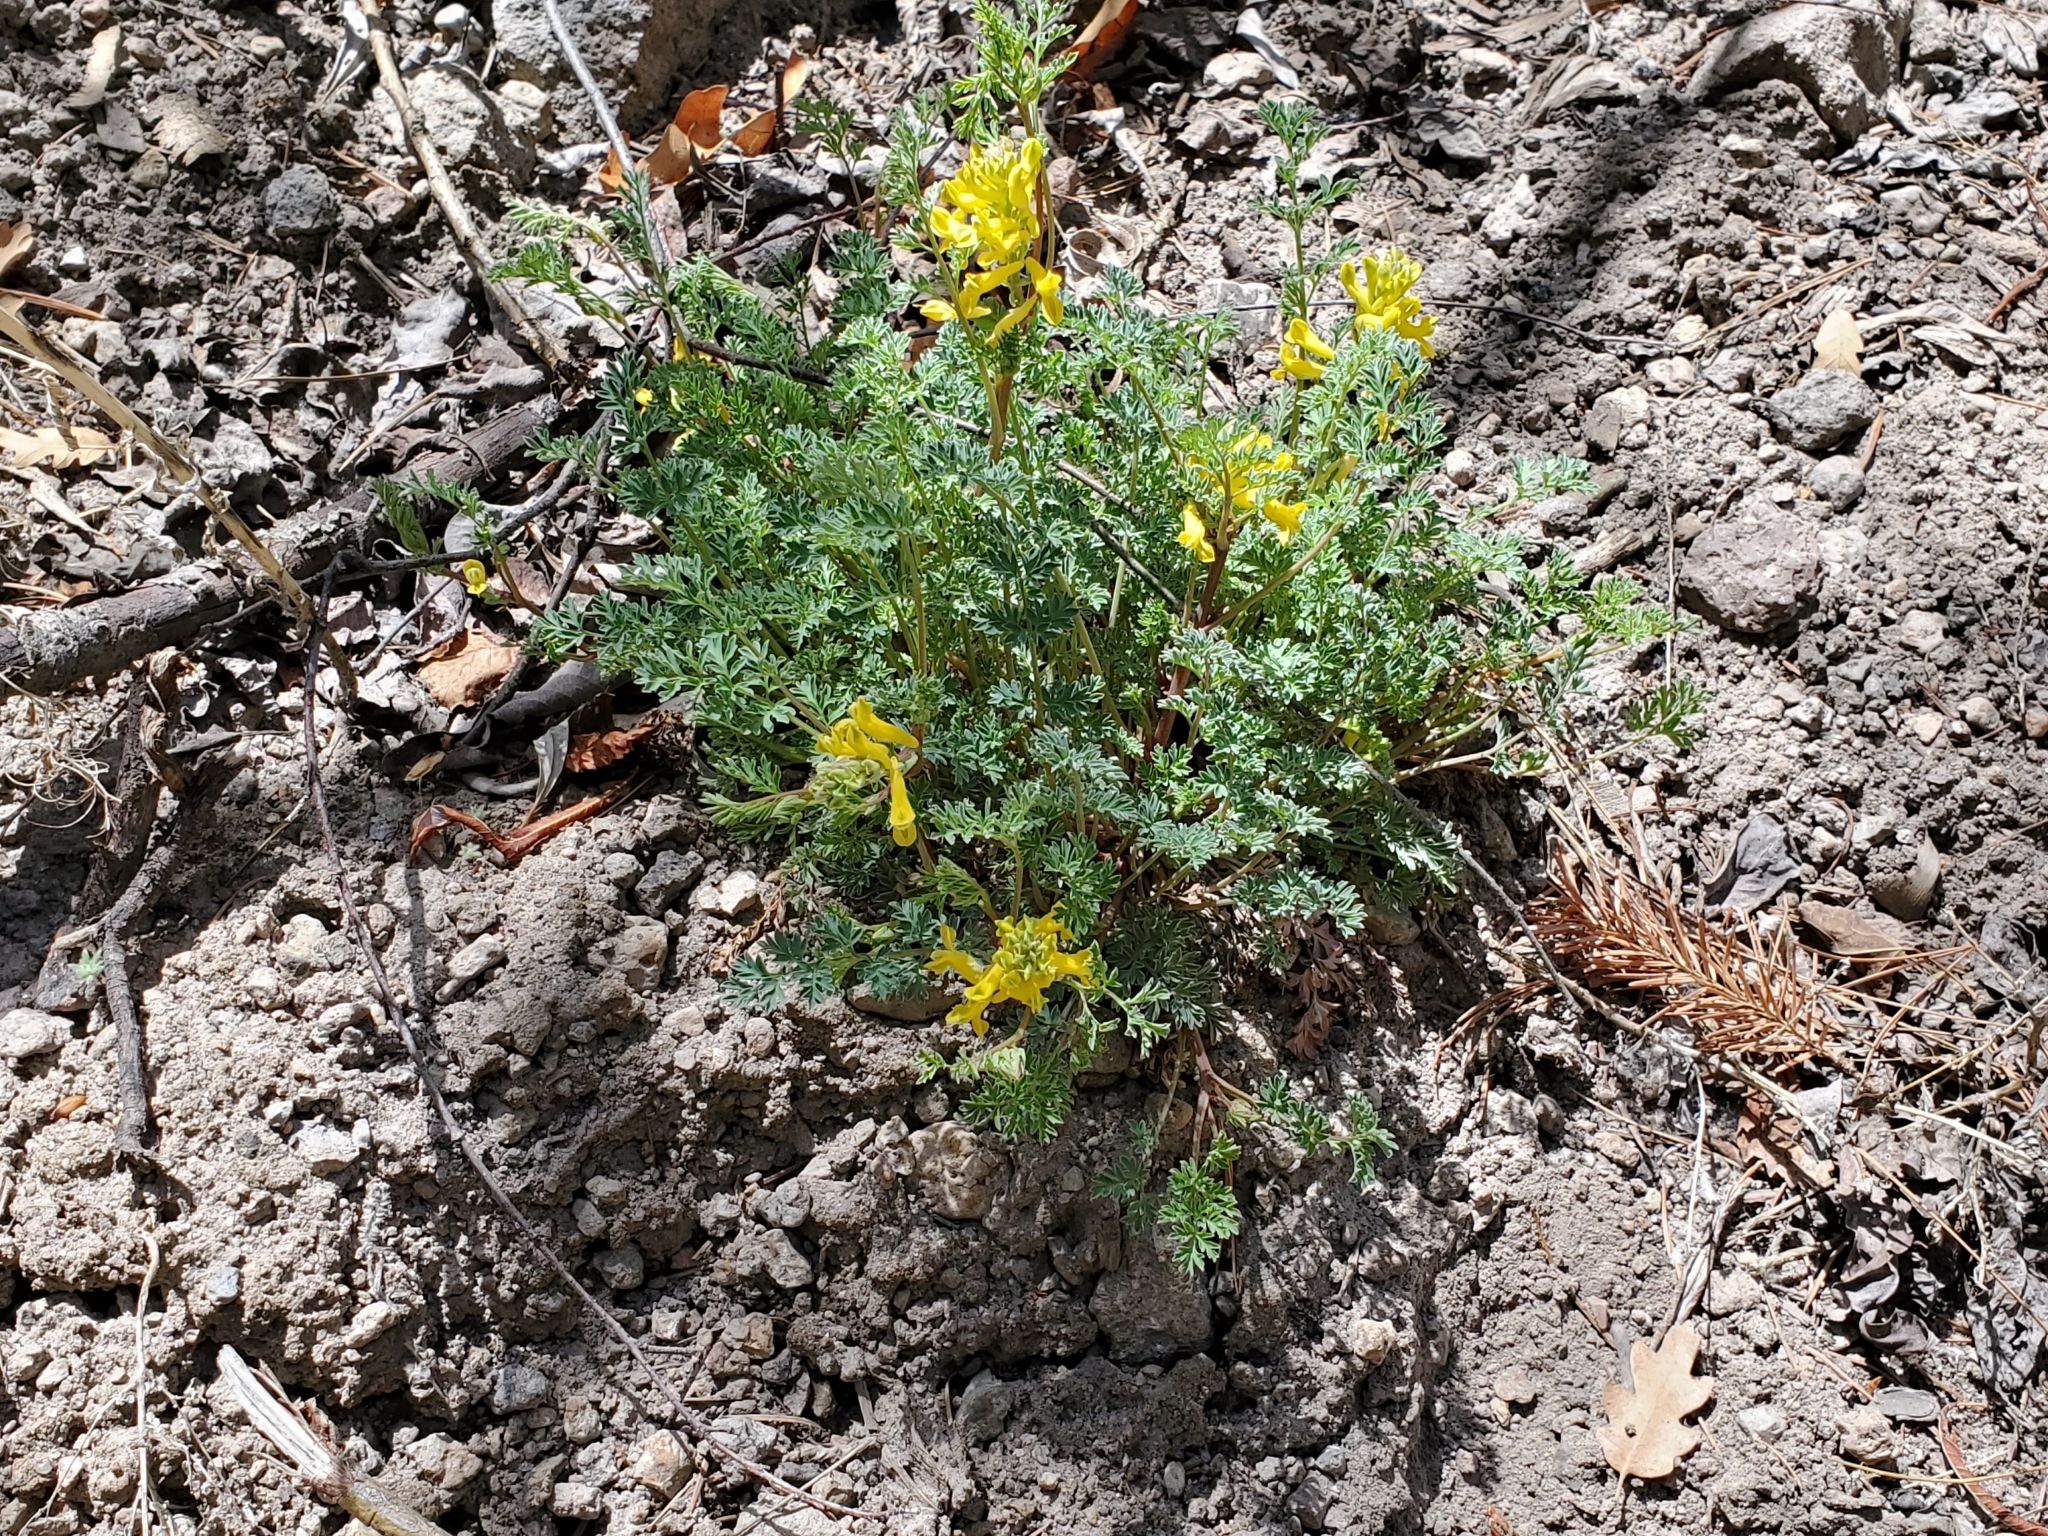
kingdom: Plantae
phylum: Tracheophyta
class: Magnoliopsida
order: Ranunculales
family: Papaveraceae
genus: Corydalis
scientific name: Corydalis aurea
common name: Golden corydalis
